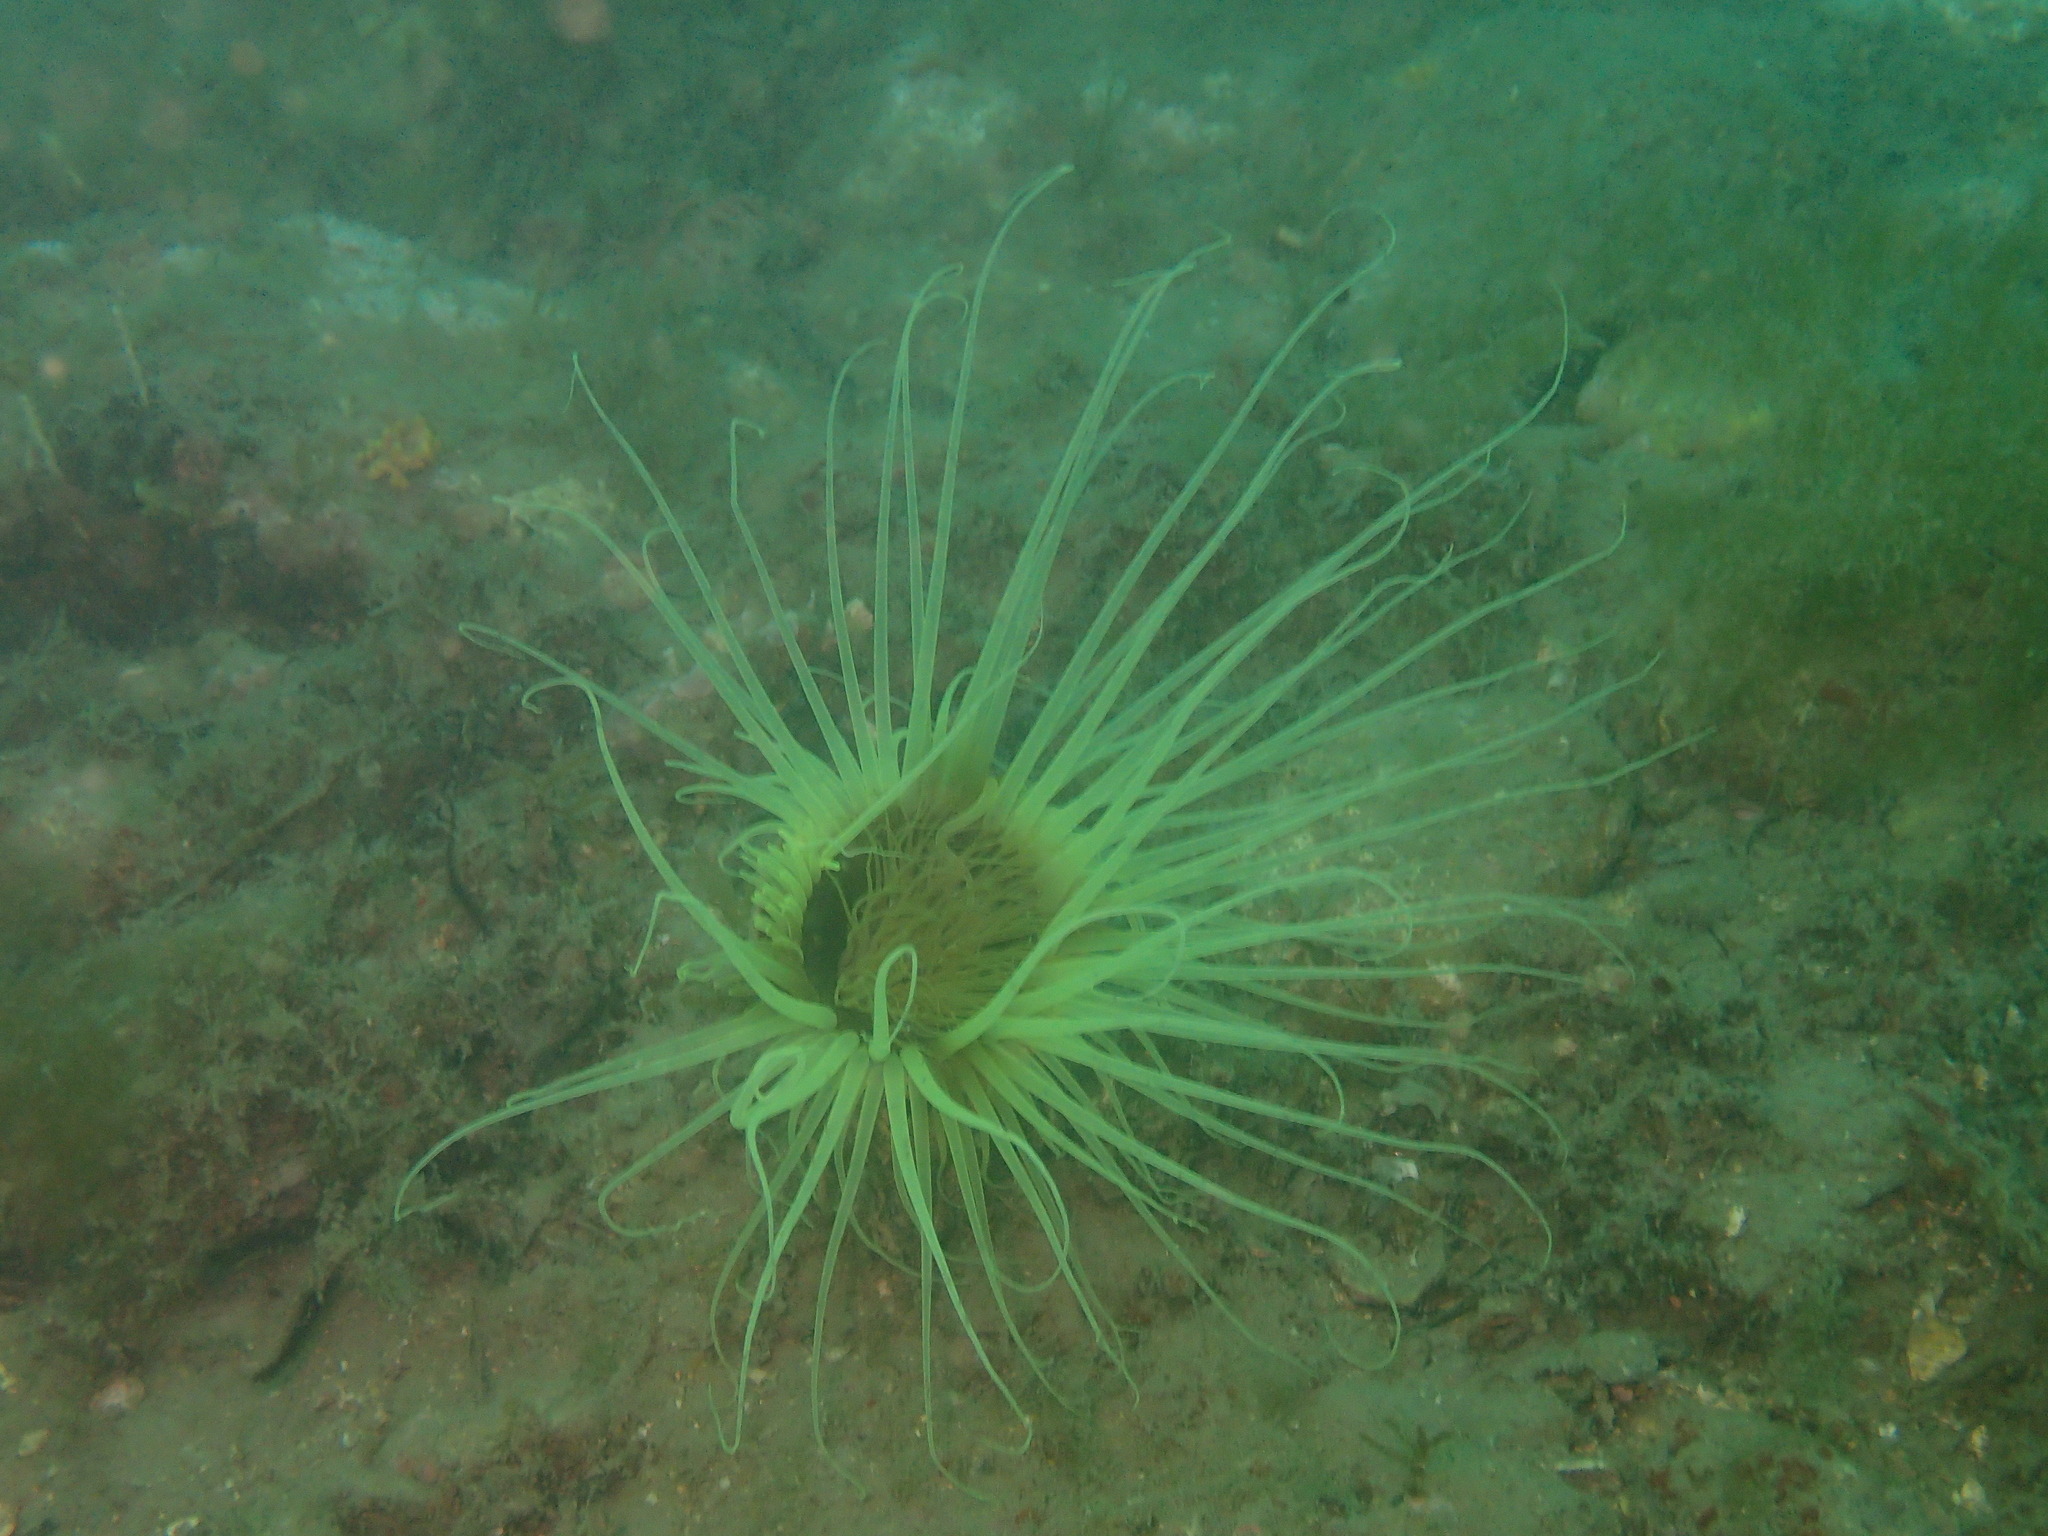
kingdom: Animalia
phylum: Cnidaria
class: Anthozoa
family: Cerianthidae
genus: Cerianthus
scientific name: Cerianthus membranaceus
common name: Cylinder anemone
